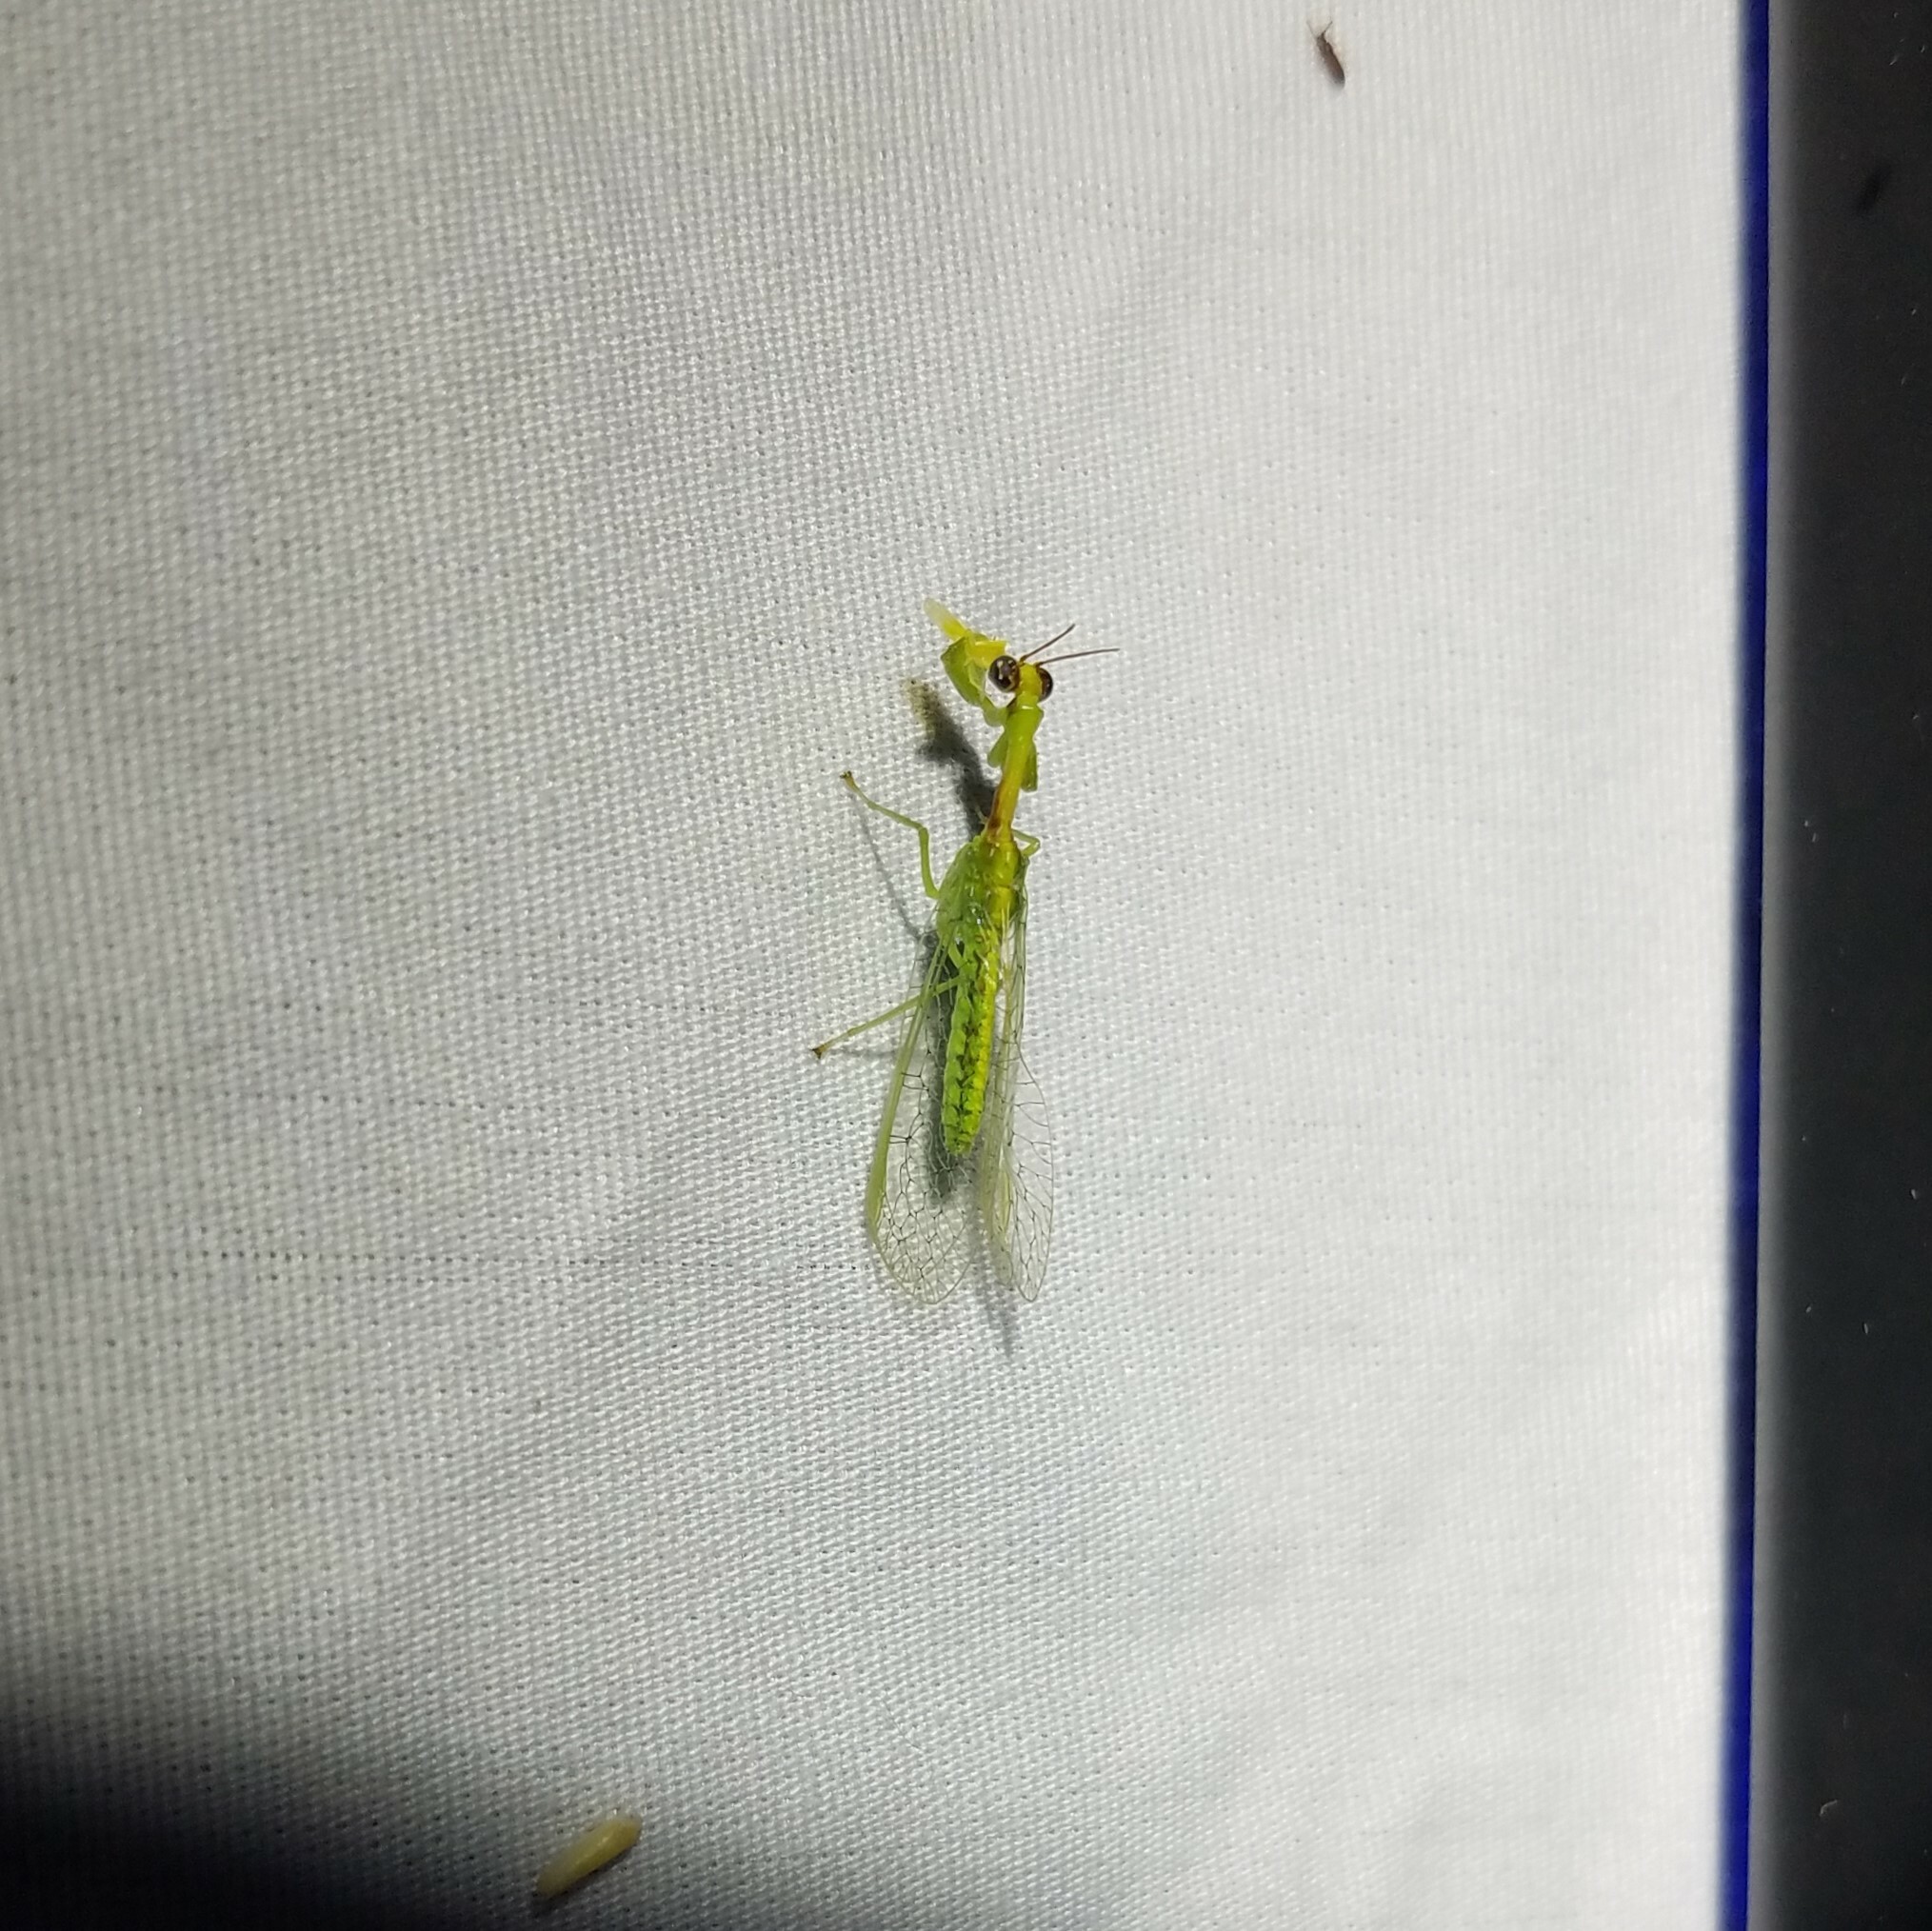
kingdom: Animalia
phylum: Arthropoda
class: Insecta
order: Neuroptera
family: Mantispidae
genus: Zeugomantispa
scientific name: Zeugomantispa minuta
